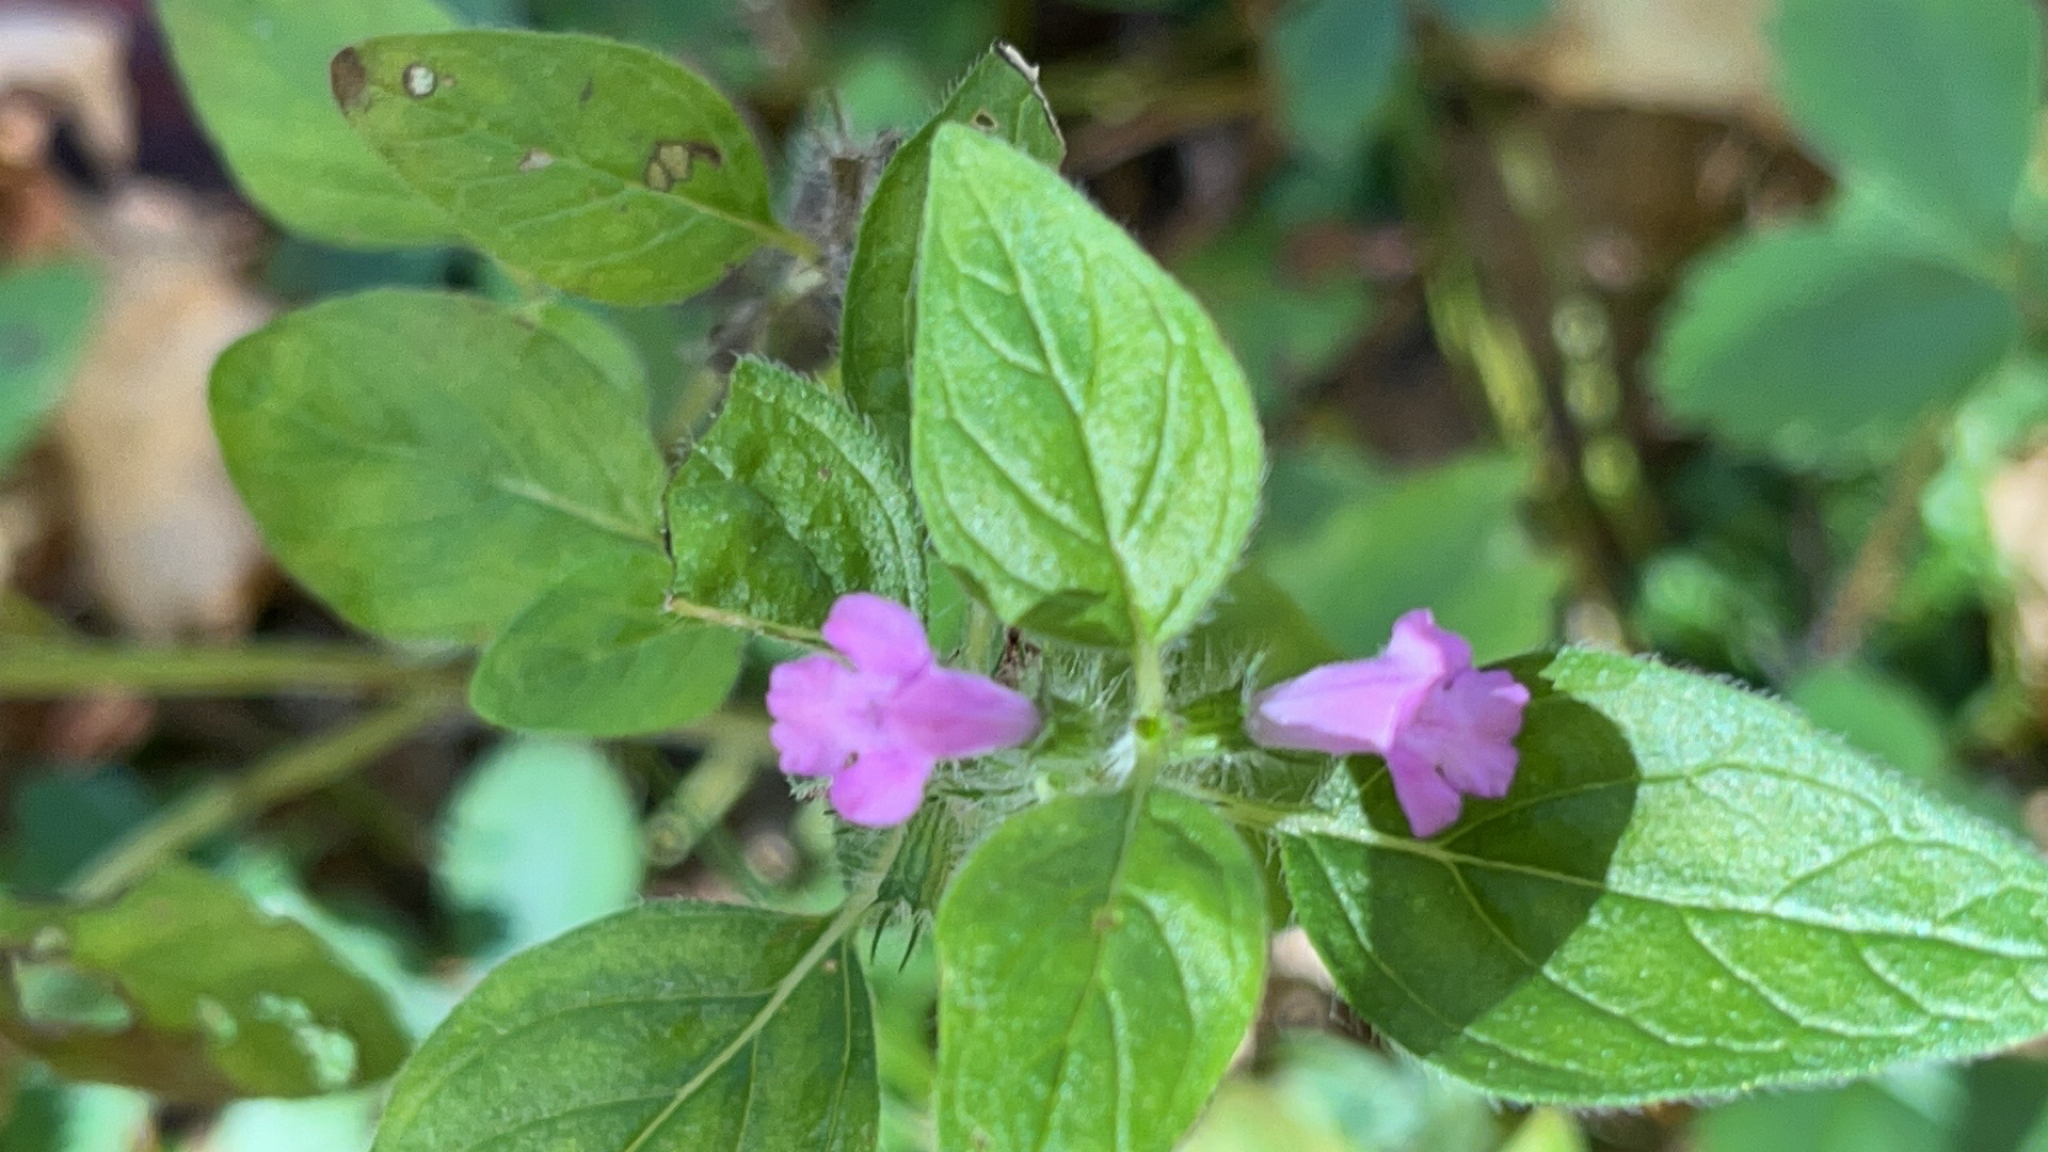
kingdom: Plantae
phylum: Tracheophyta
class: Magnoliopsida
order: Lamiales
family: Lamiaceae
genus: Clinopodium
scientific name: Clinopodium vulgare
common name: Wild basil
